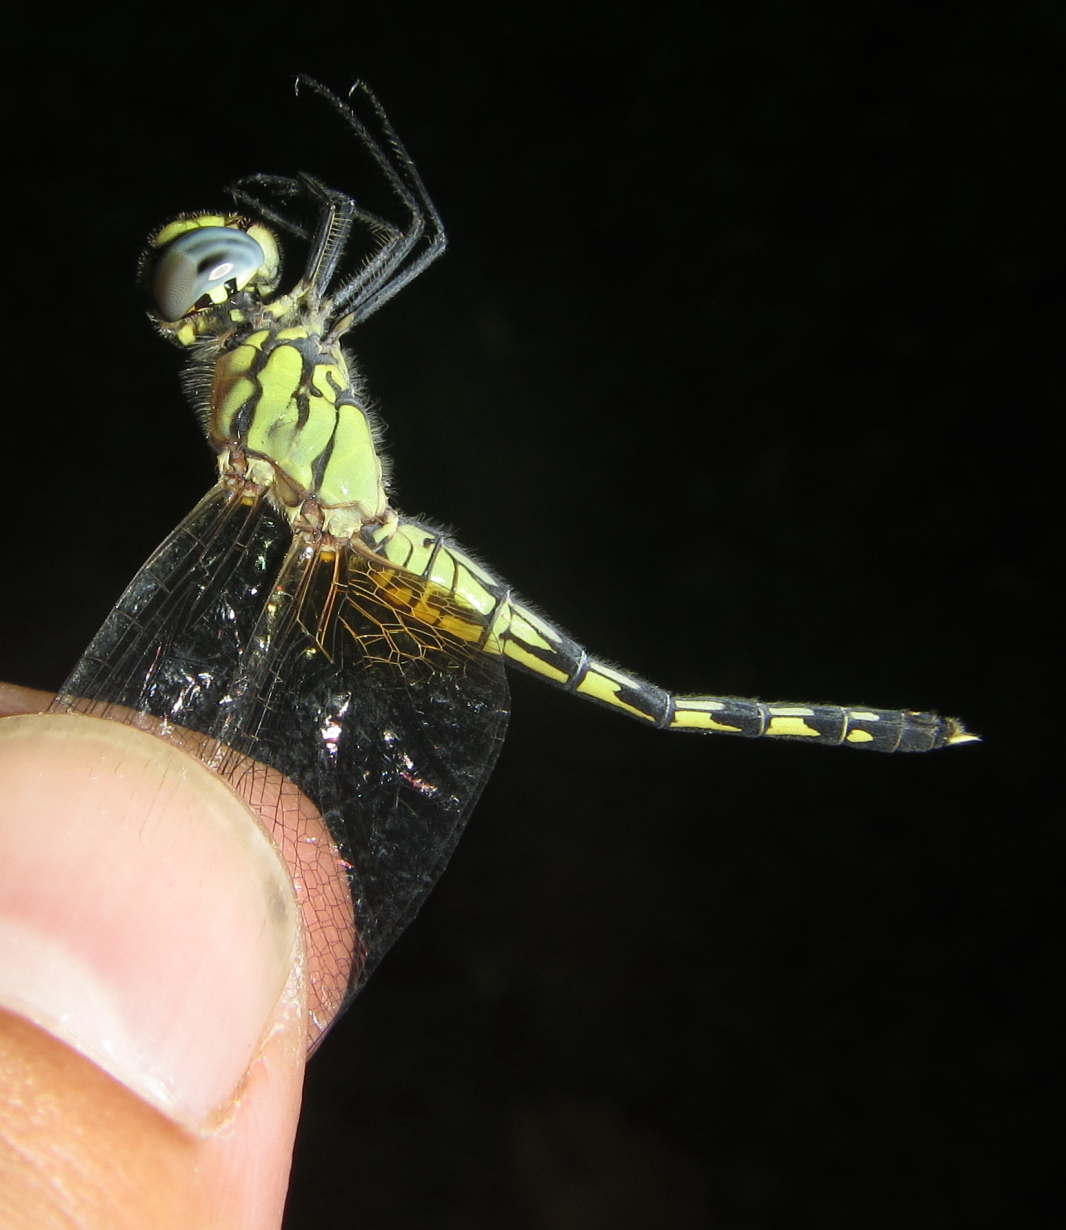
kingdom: Animalia
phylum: Arthropoda
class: Insecta
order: Odonata
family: Libellulidae
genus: Diplacodes
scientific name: Diplacodes luminans
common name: Barbet percher
